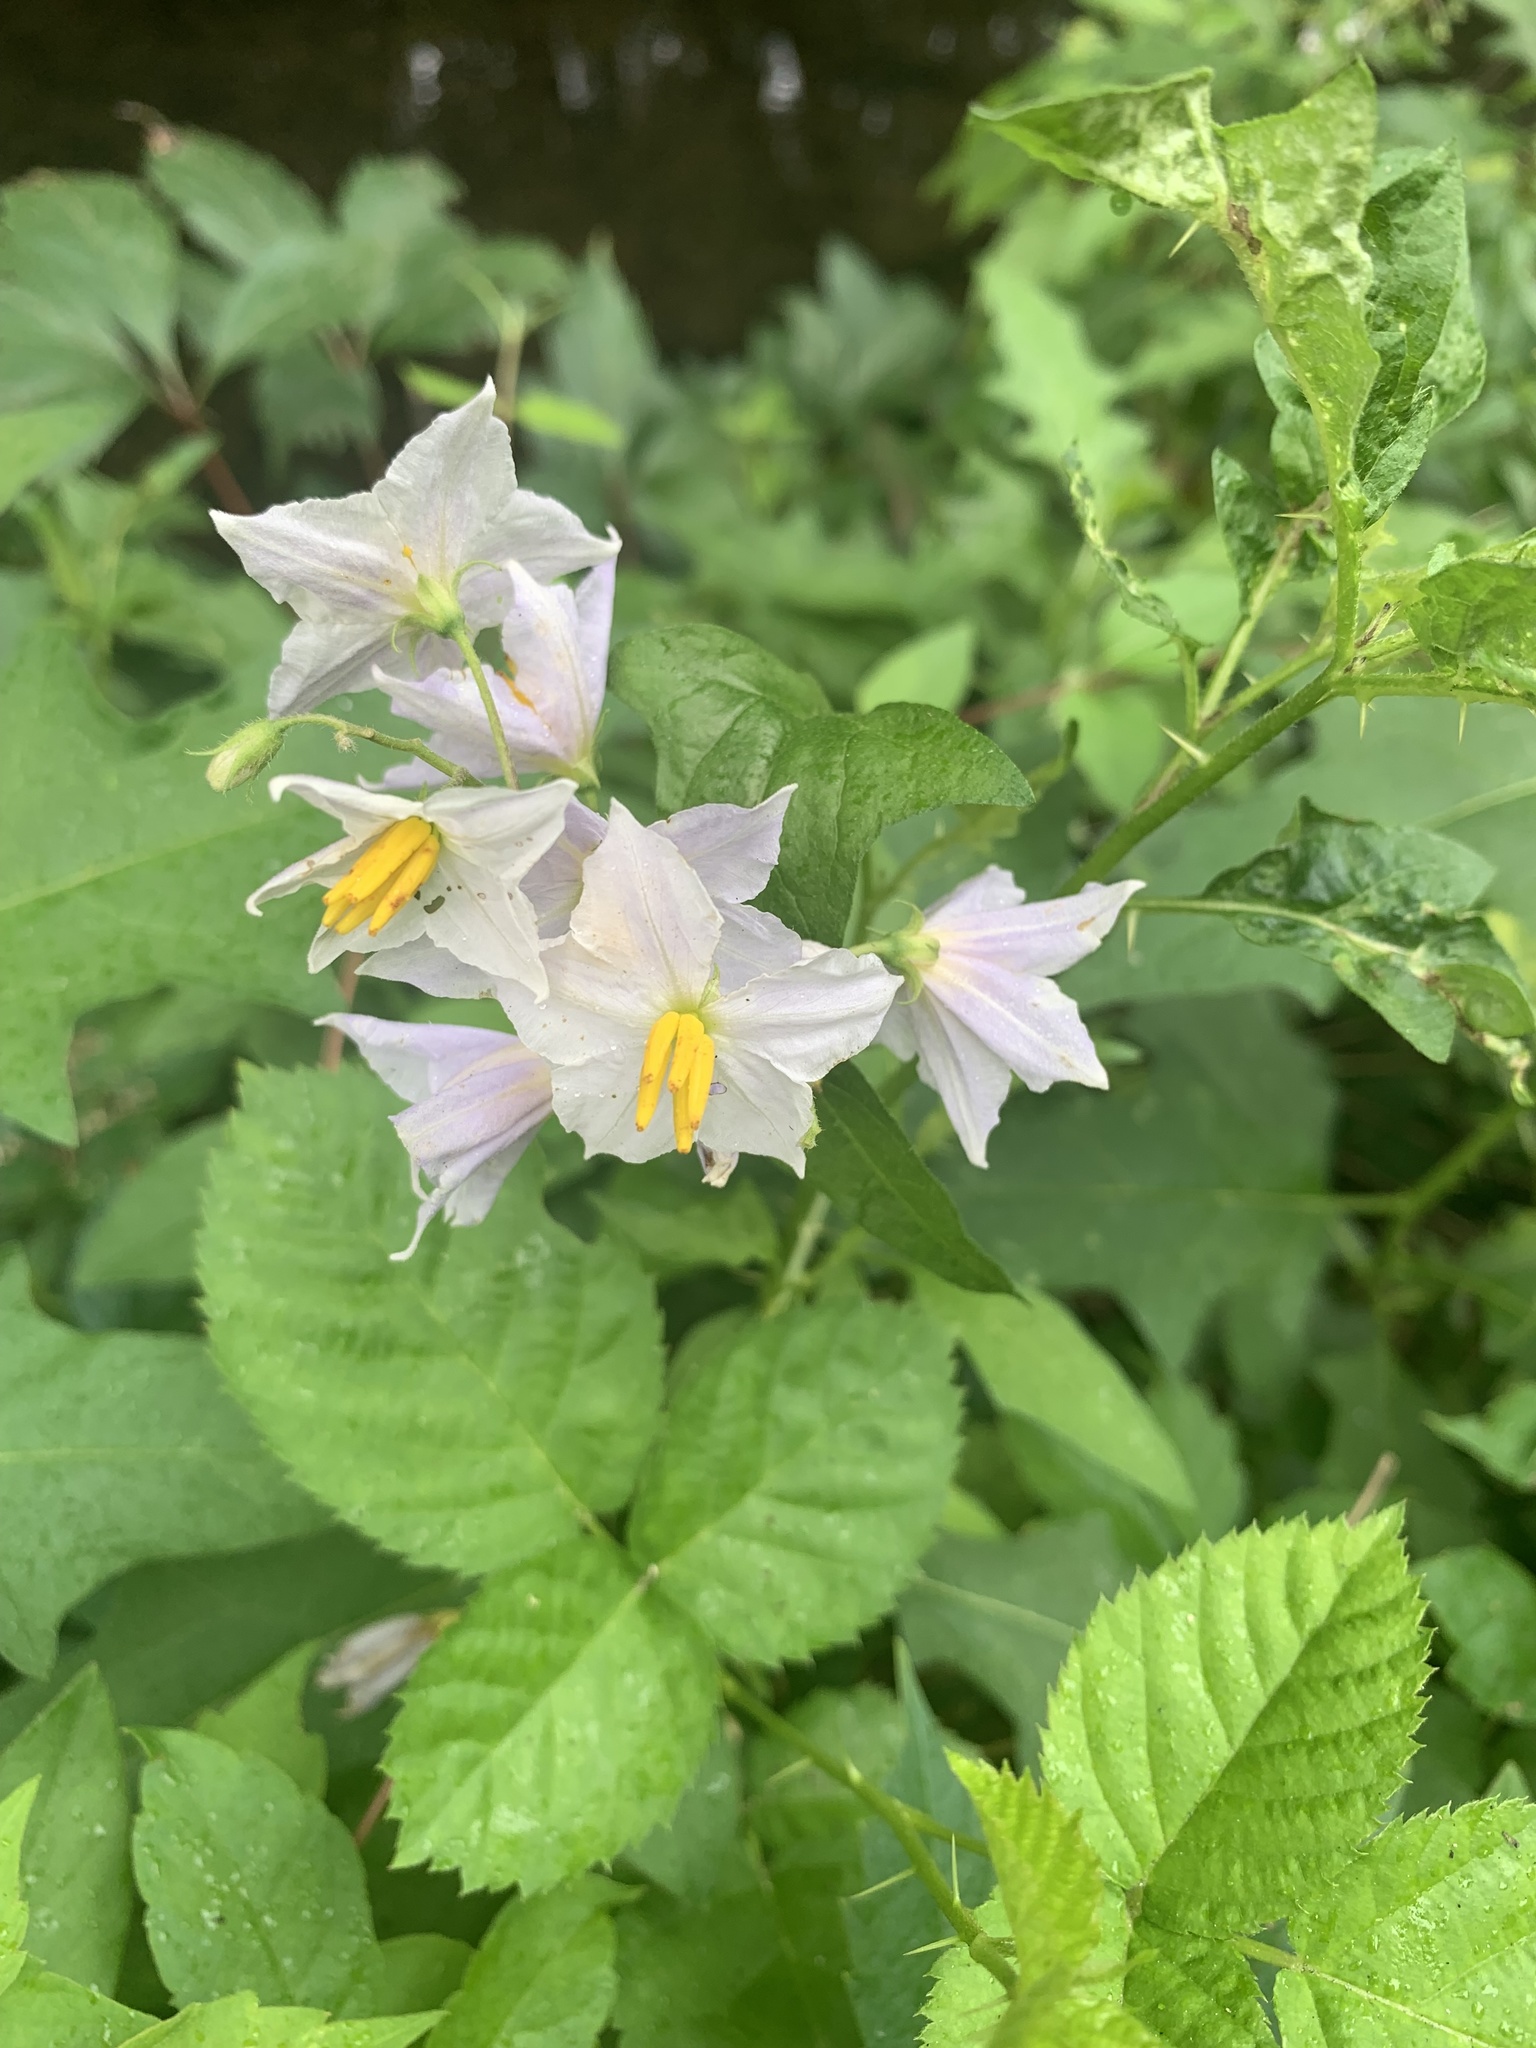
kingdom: Plantae
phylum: Tracheophyta
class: Magnoliopsida
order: Solanales
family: Solanaceae
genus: Solanum
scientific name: Solanum carolinense
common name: Horse-nettle
